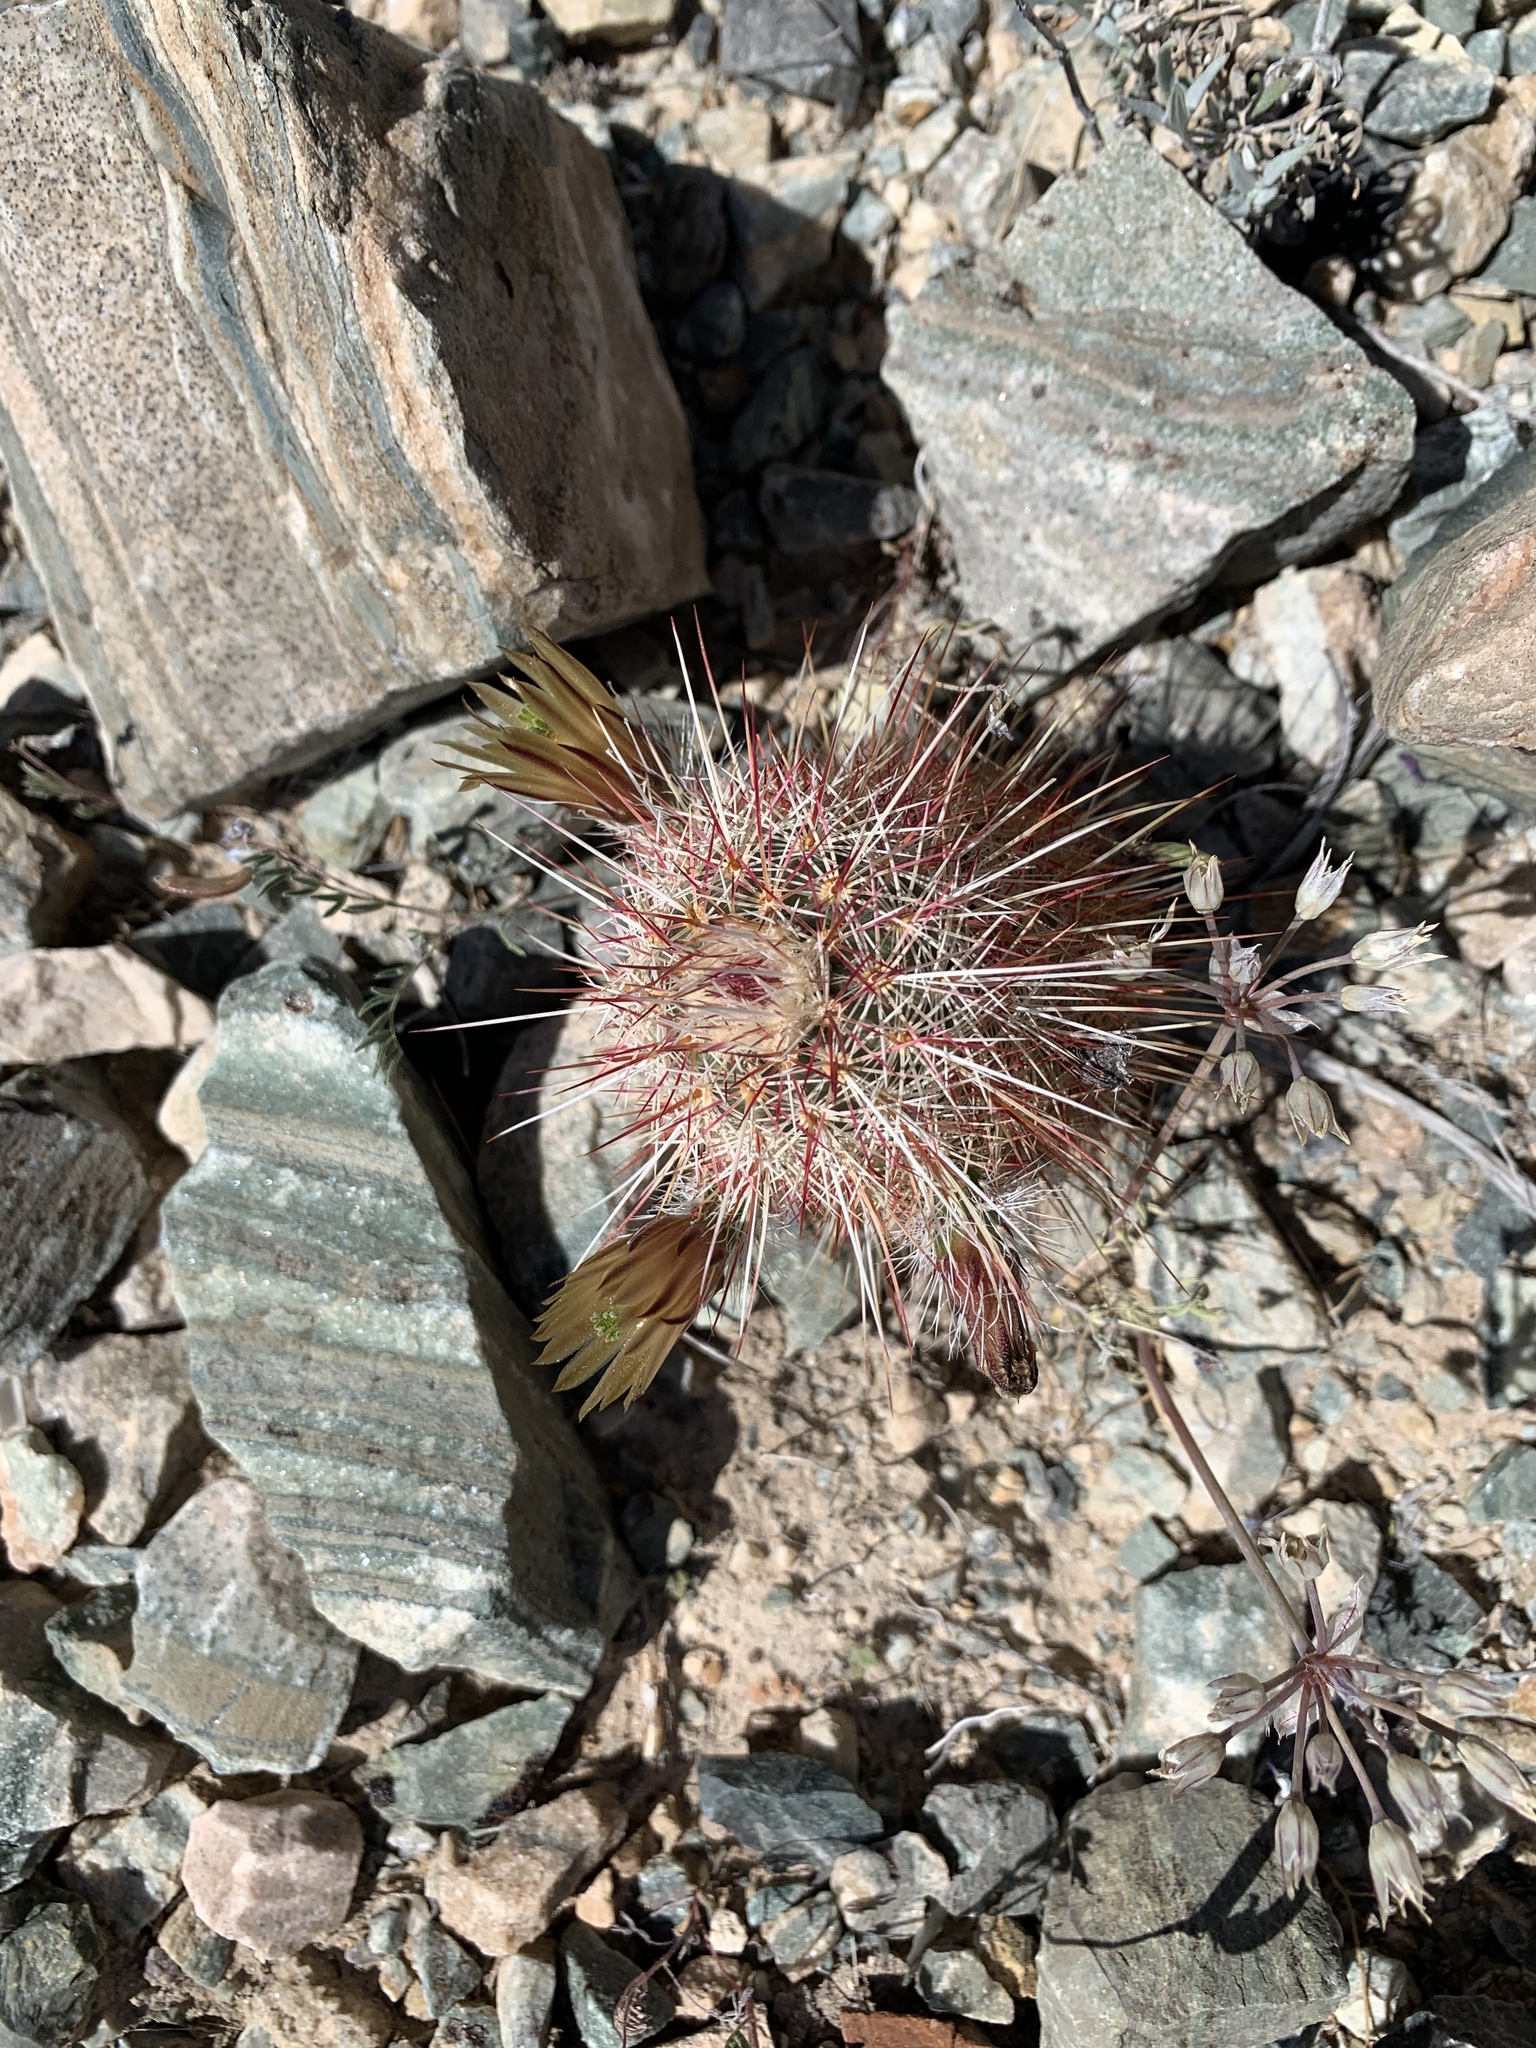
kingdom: Plantae
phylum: Tracheophyta
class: Magnoliopsida
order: Caryophyllales
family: Cactaceae
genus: Echinocereus
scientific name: Echinocereus viridiflorus
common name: Nylon hedgehog cactus
